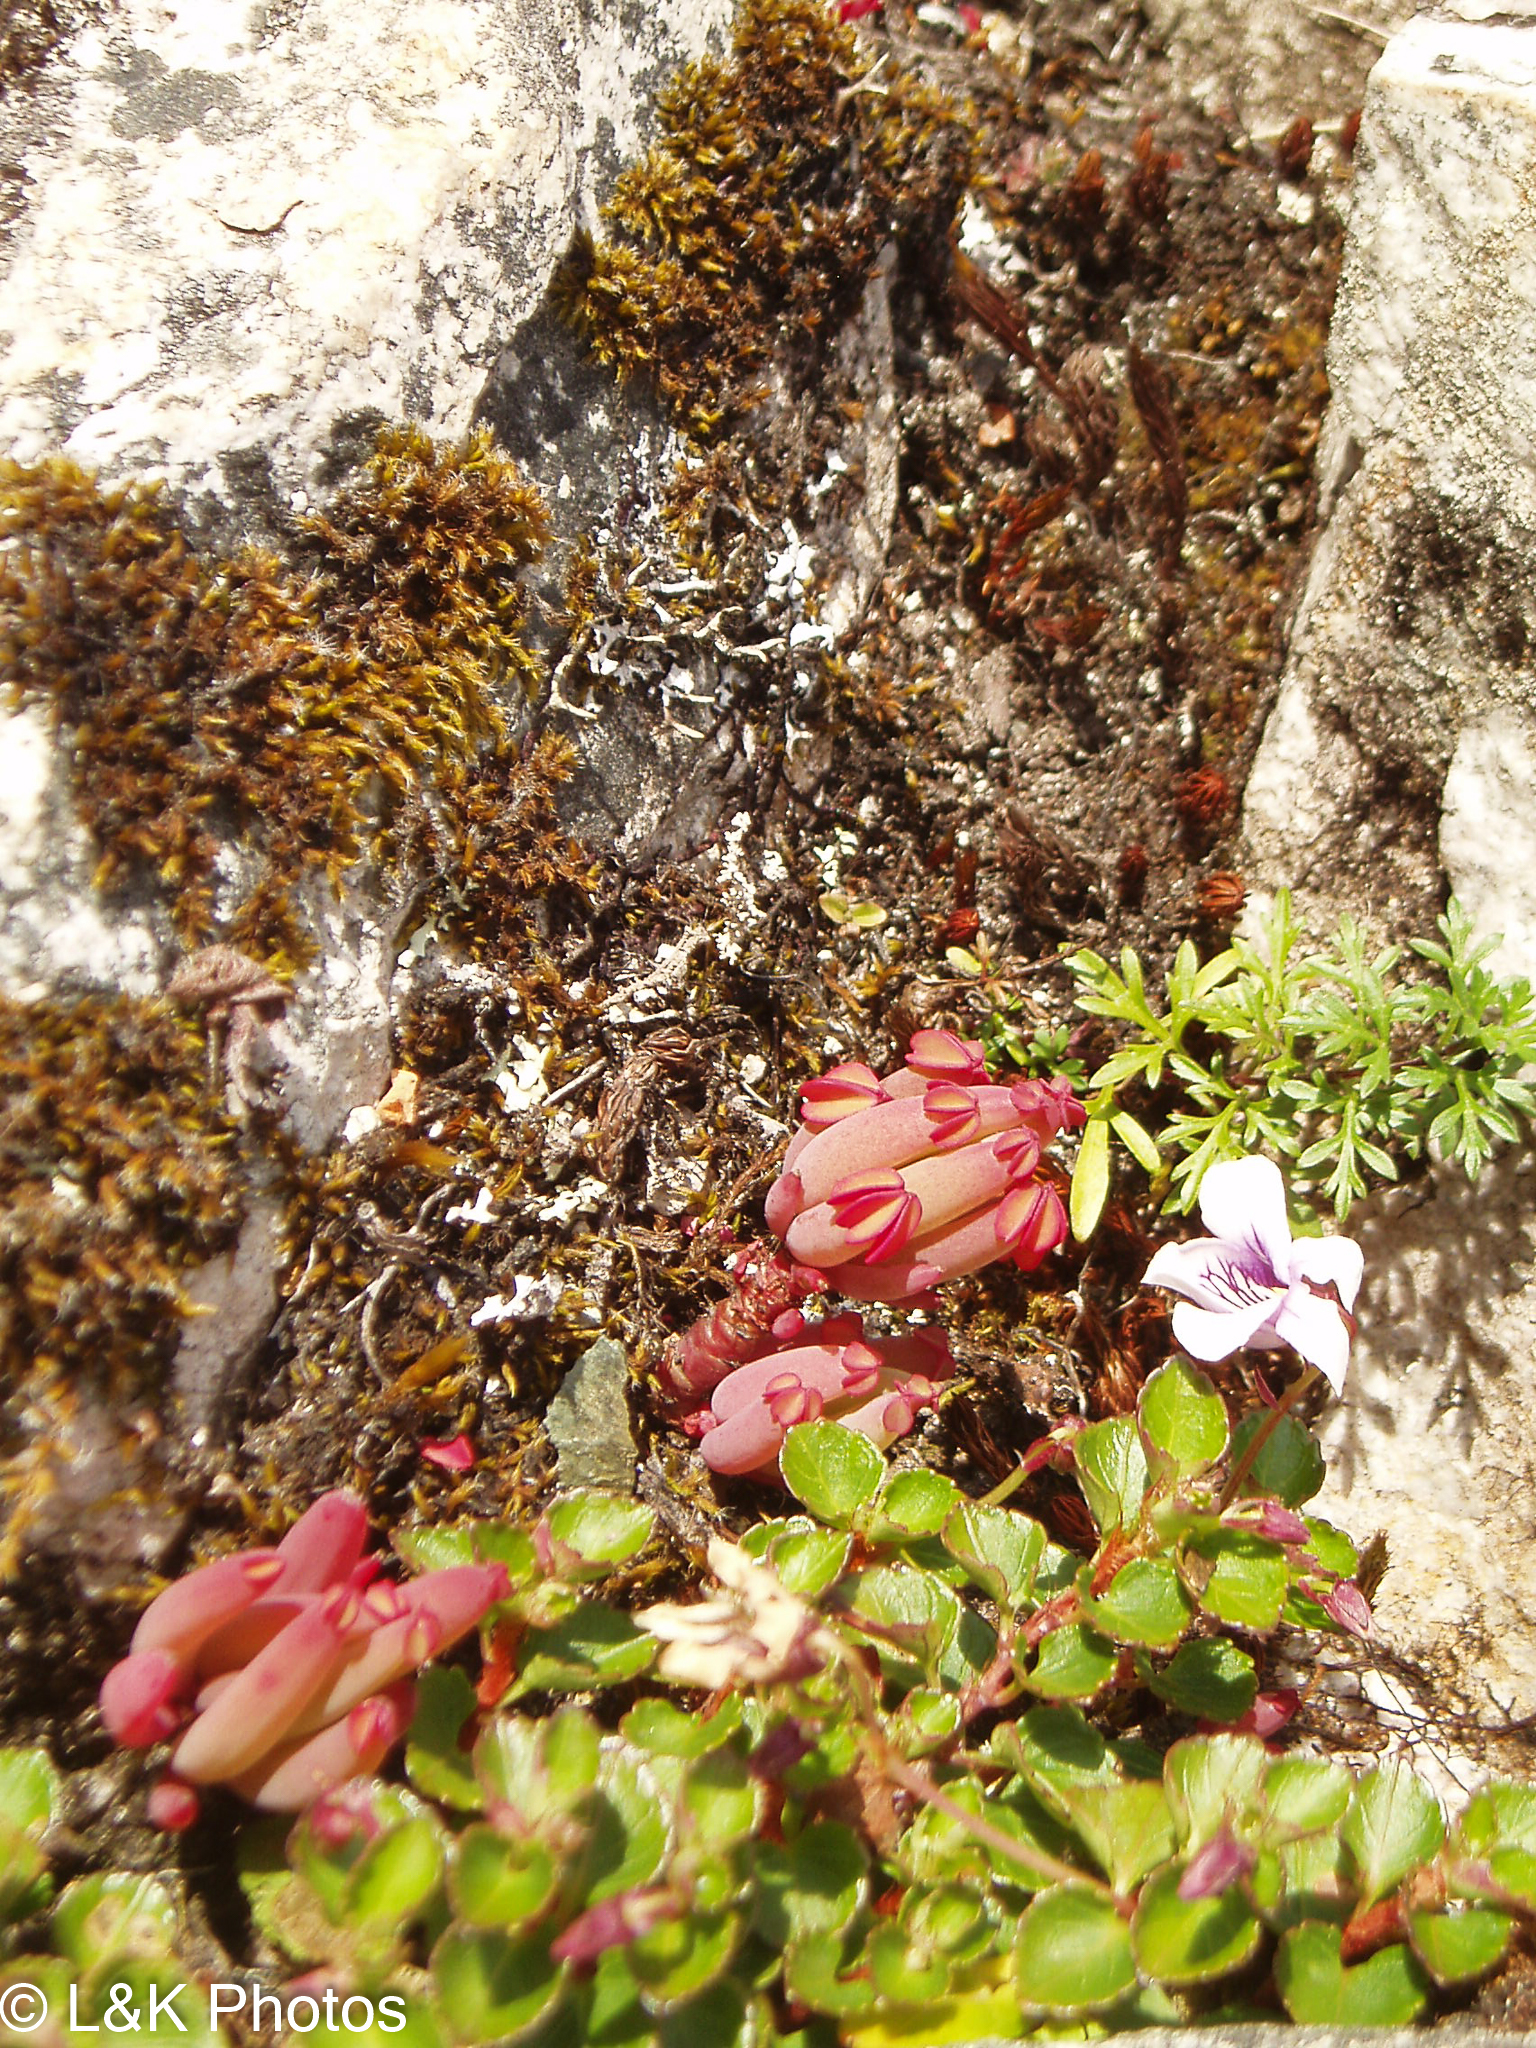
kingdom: Plantae
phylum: Tracheophyta
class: Magnoliopsida
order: Oxalidales
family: Oxalidaceae
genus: Oxalis
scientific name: Oxalis san-miguelii
